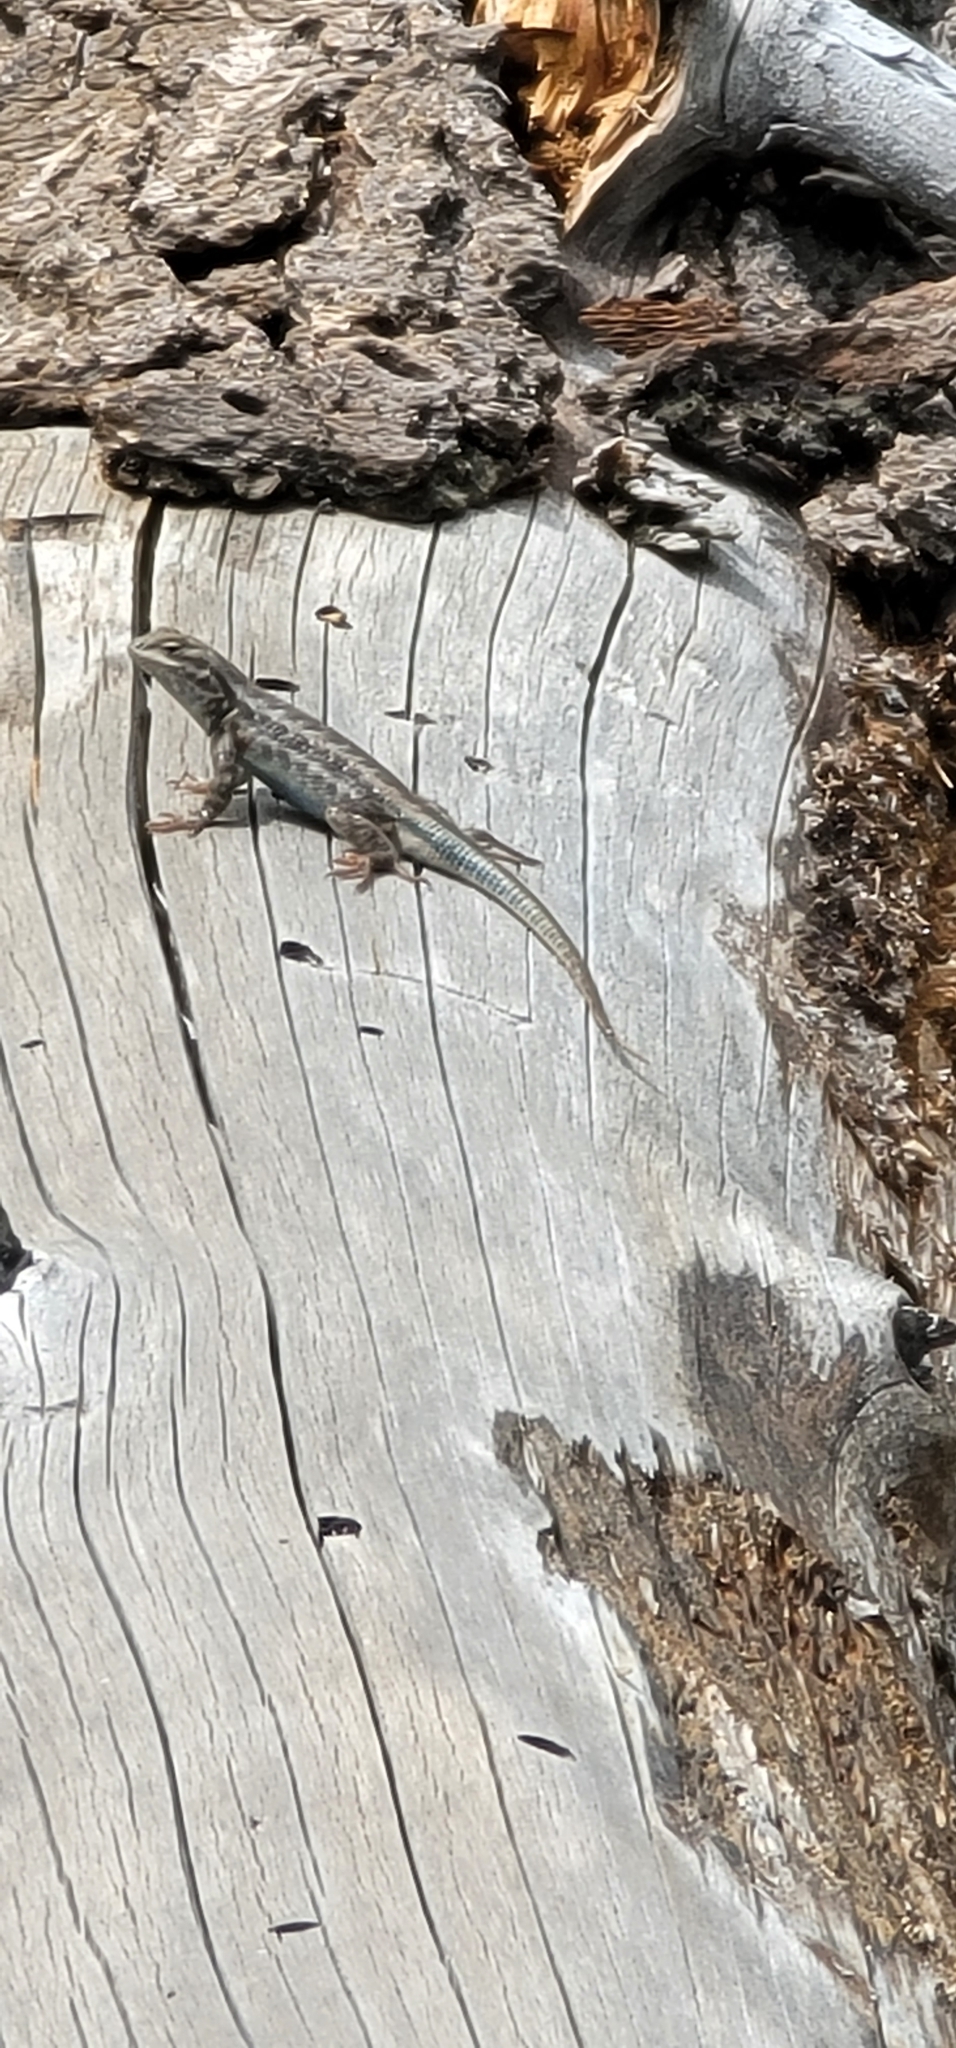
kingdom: Animalia
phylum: Chordata
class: Squamata
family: Phrynosomatidae
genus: Sceloporus
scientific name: Sceloporus graciosus
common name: Sagebrush lizard
